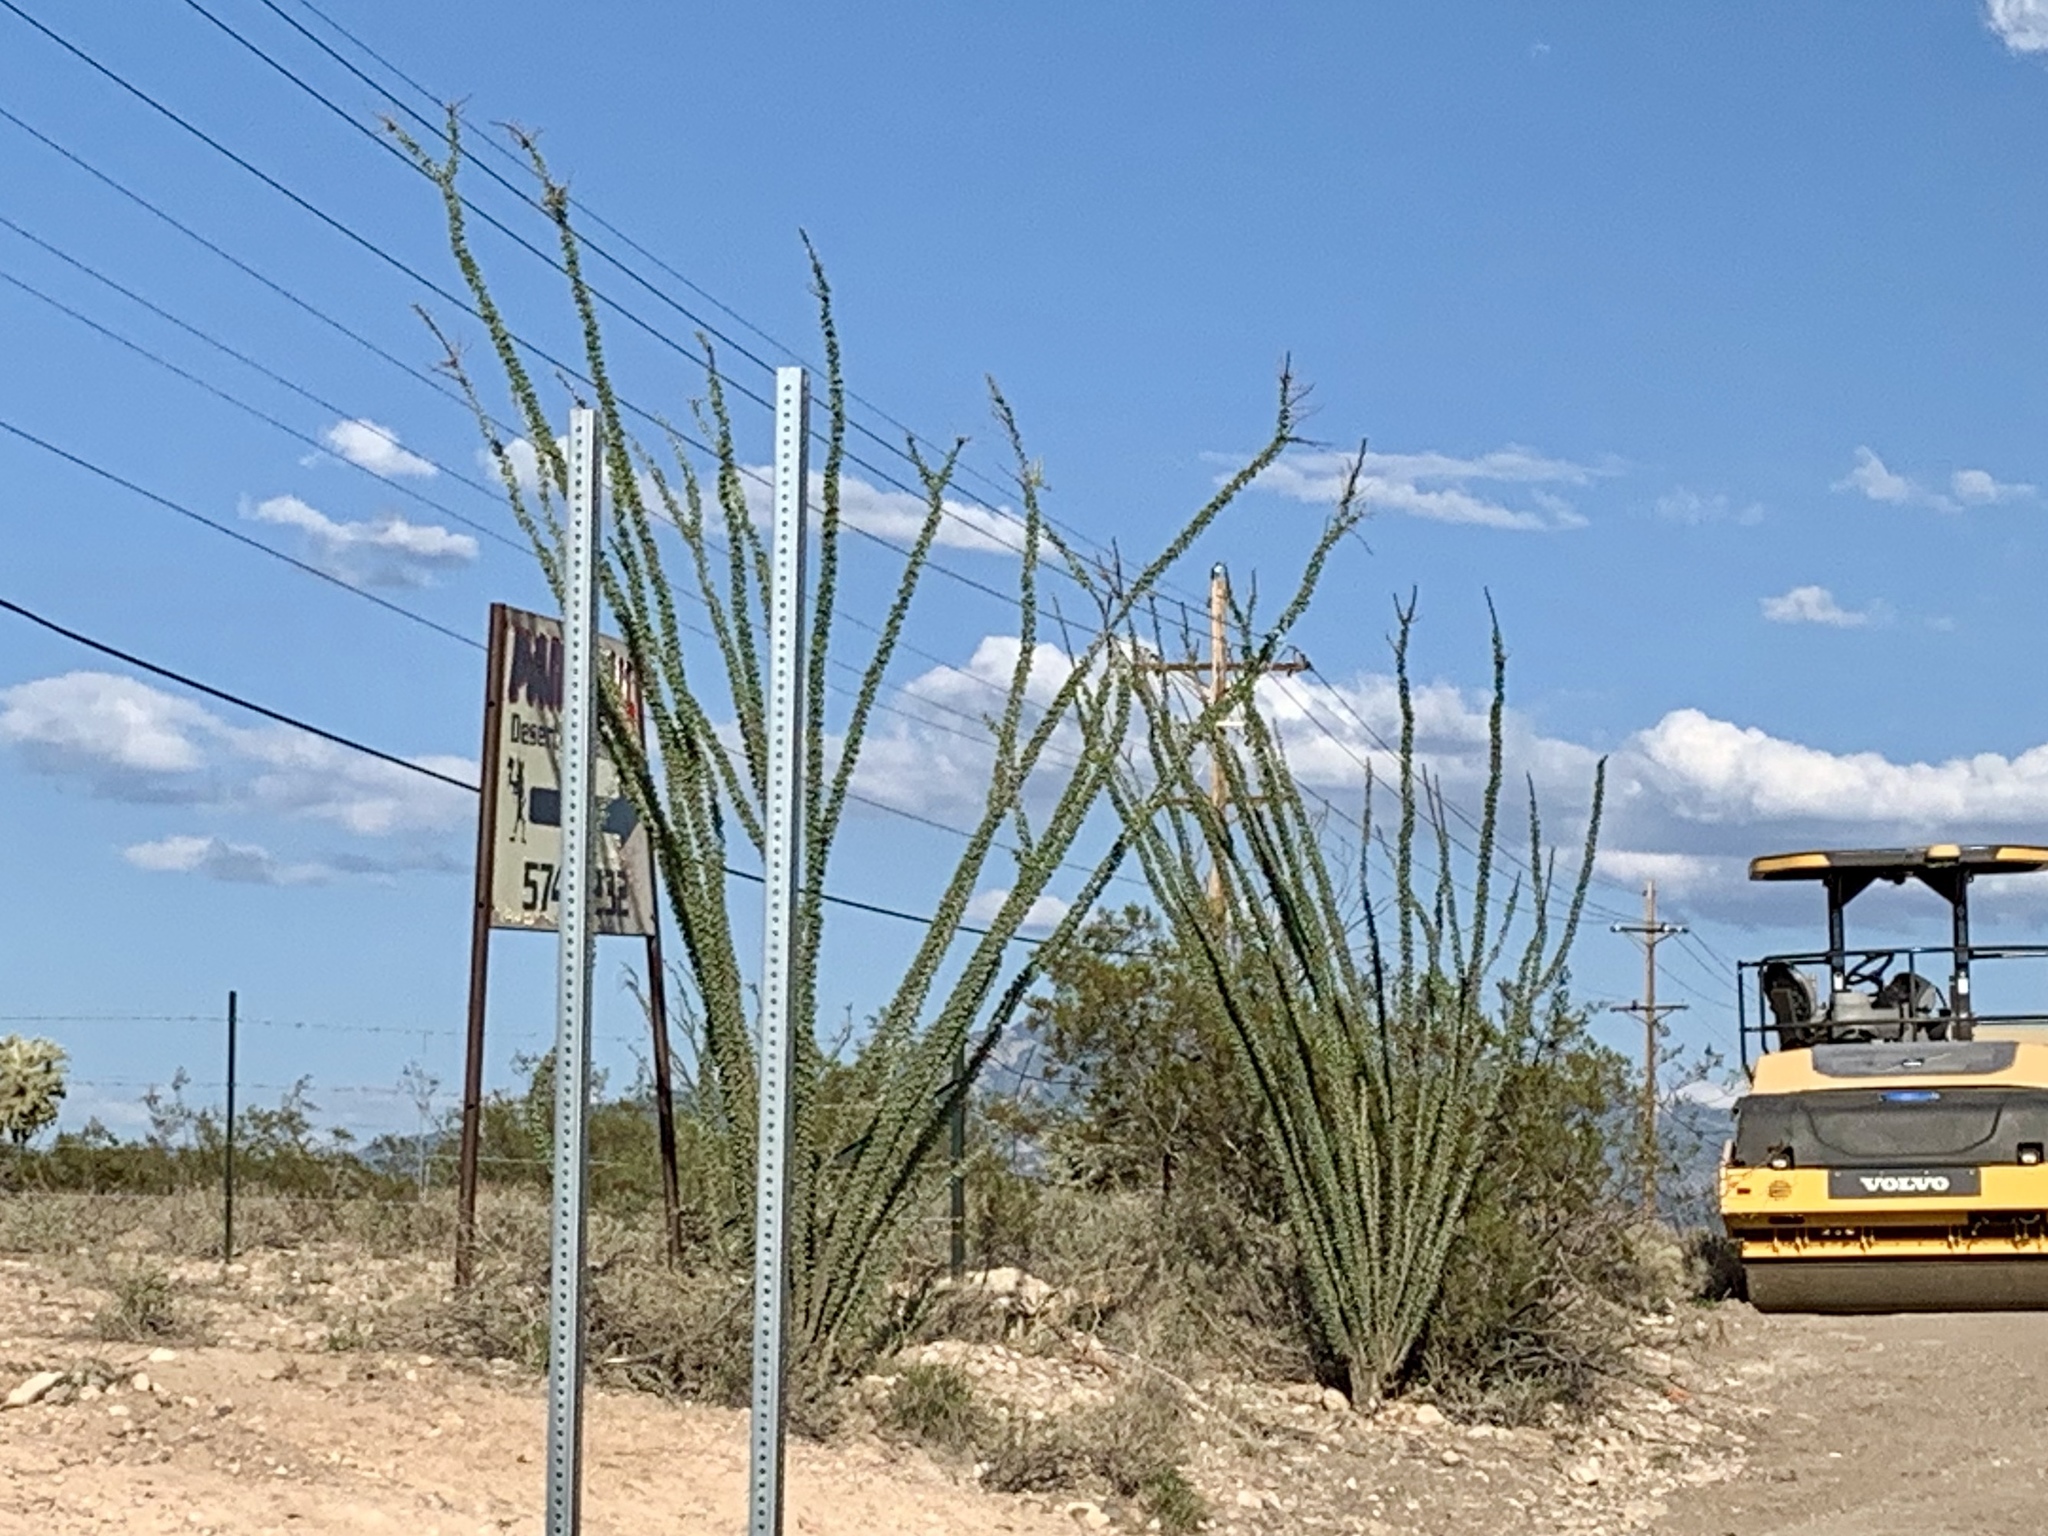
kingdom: Plantae
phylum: Tracheophyta
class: Magnoliopsida
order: Ericales
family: Fouquieriaceae
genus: Fouquieria
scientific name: Fouquieria splendens
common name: Vine-cactus
